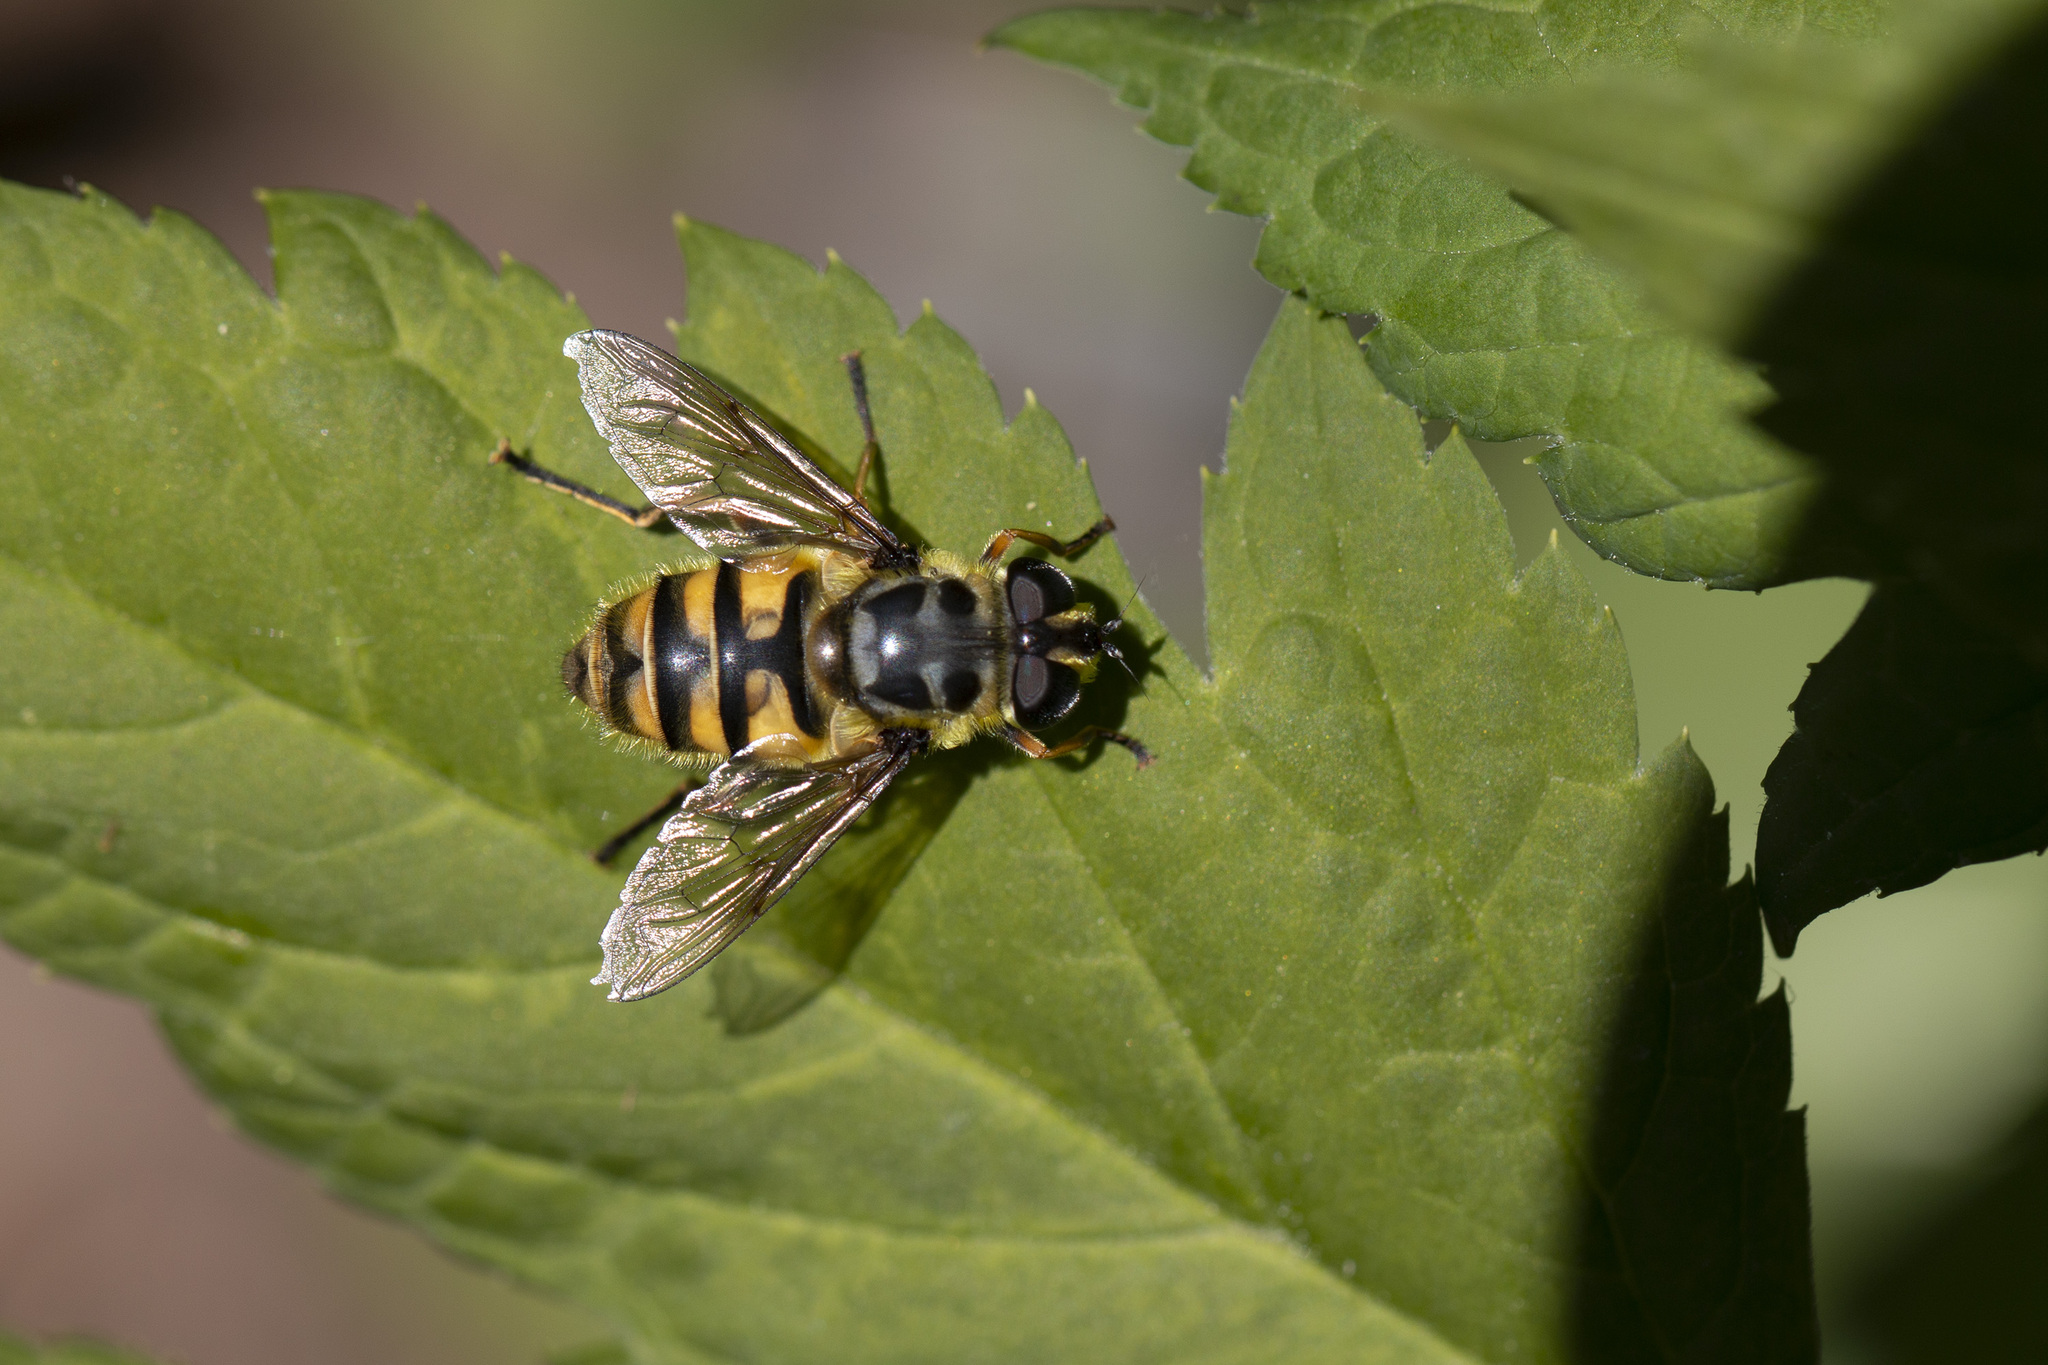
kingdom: Animalia
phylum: Arthropoda
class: Insecta
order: Diptera
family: Syrphidae
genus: Myathropa
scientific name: Myathropa florea
